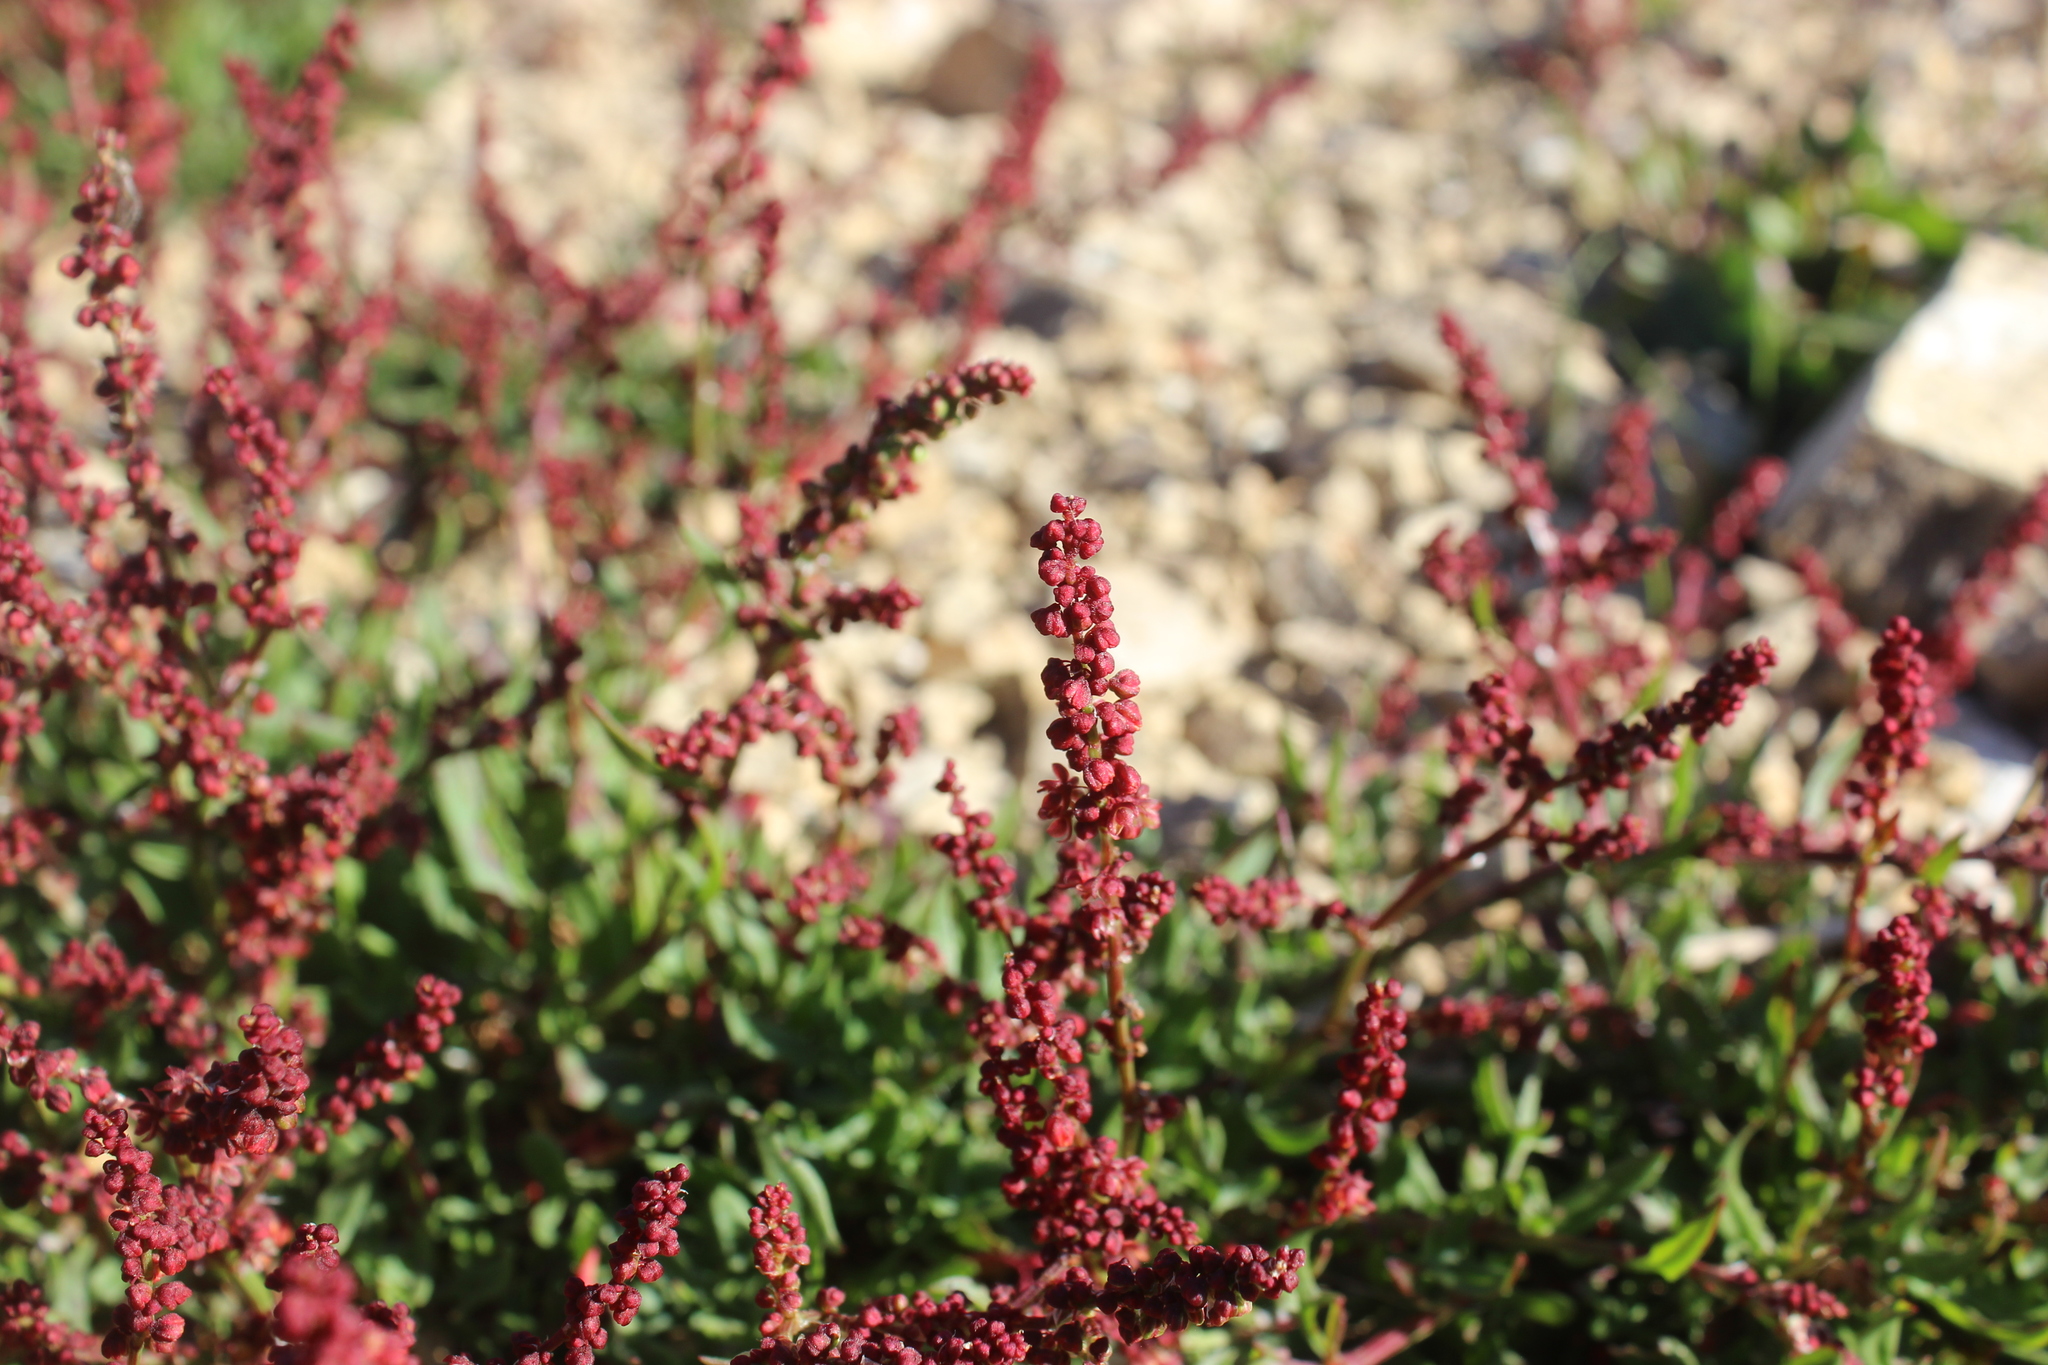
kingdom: Plantae
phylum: Tracheophyta
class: Magnoliopsida
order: Caryophyllales
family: Polygonaceae
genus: Rumex
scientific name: Rumex acetosella
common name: Common sheep sorrel
